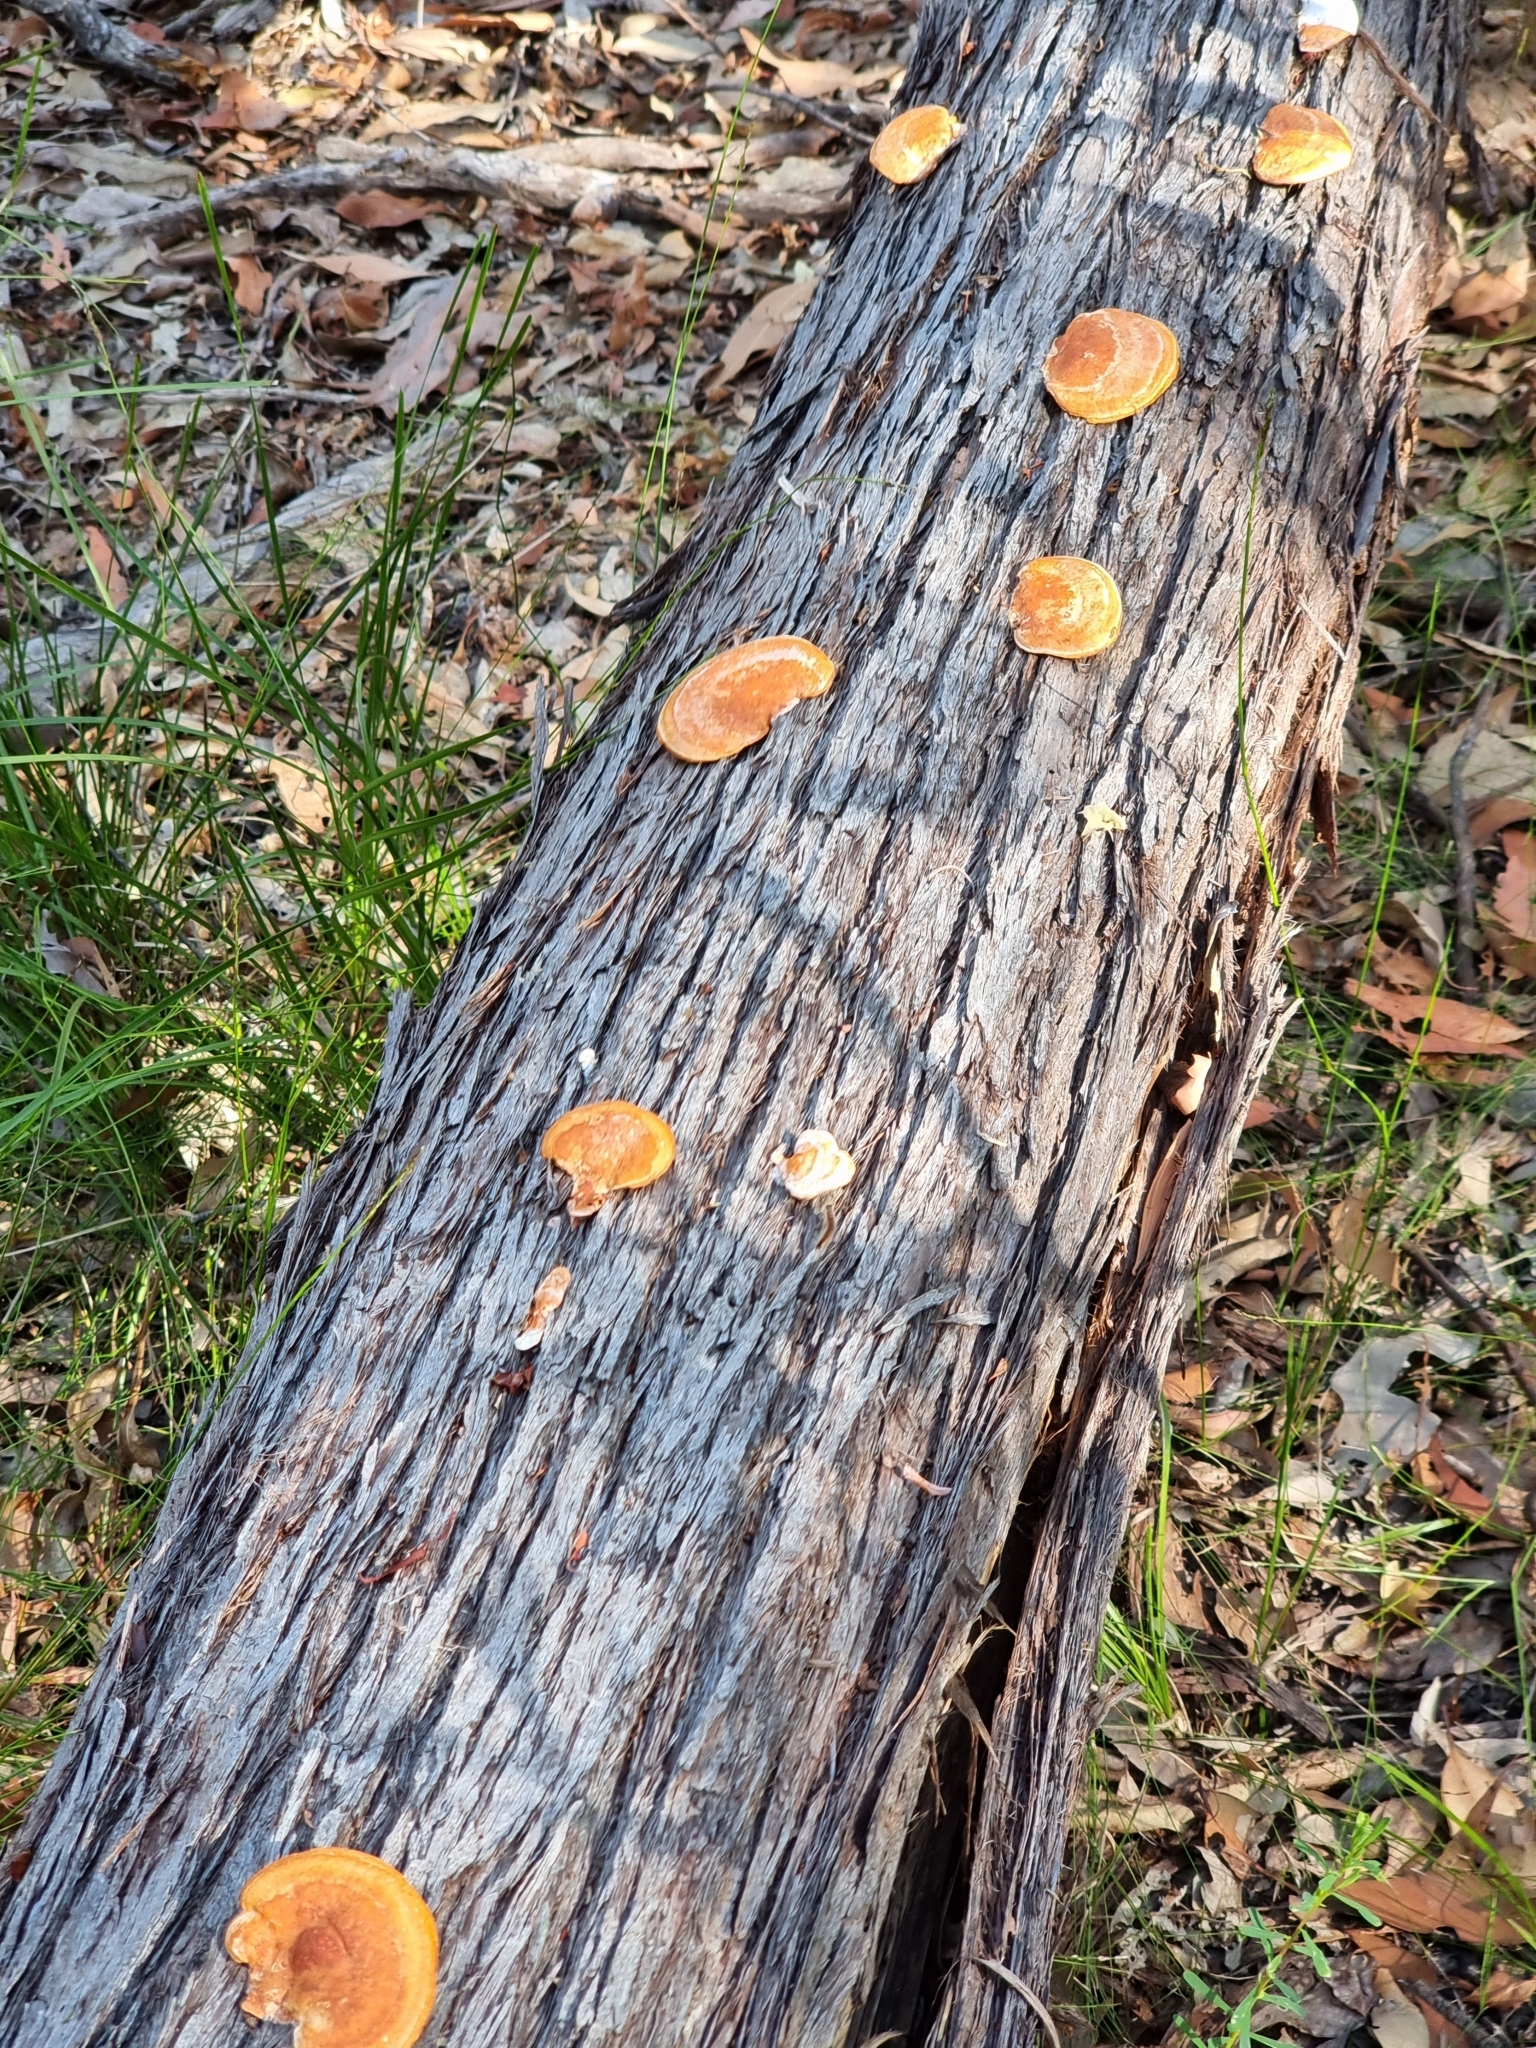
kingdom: Fungi
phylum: Basidiomycota
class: Agaricomycetes
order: Polyporales
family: Polyporaceae
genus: Trametes
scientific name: Trametes coccinea
